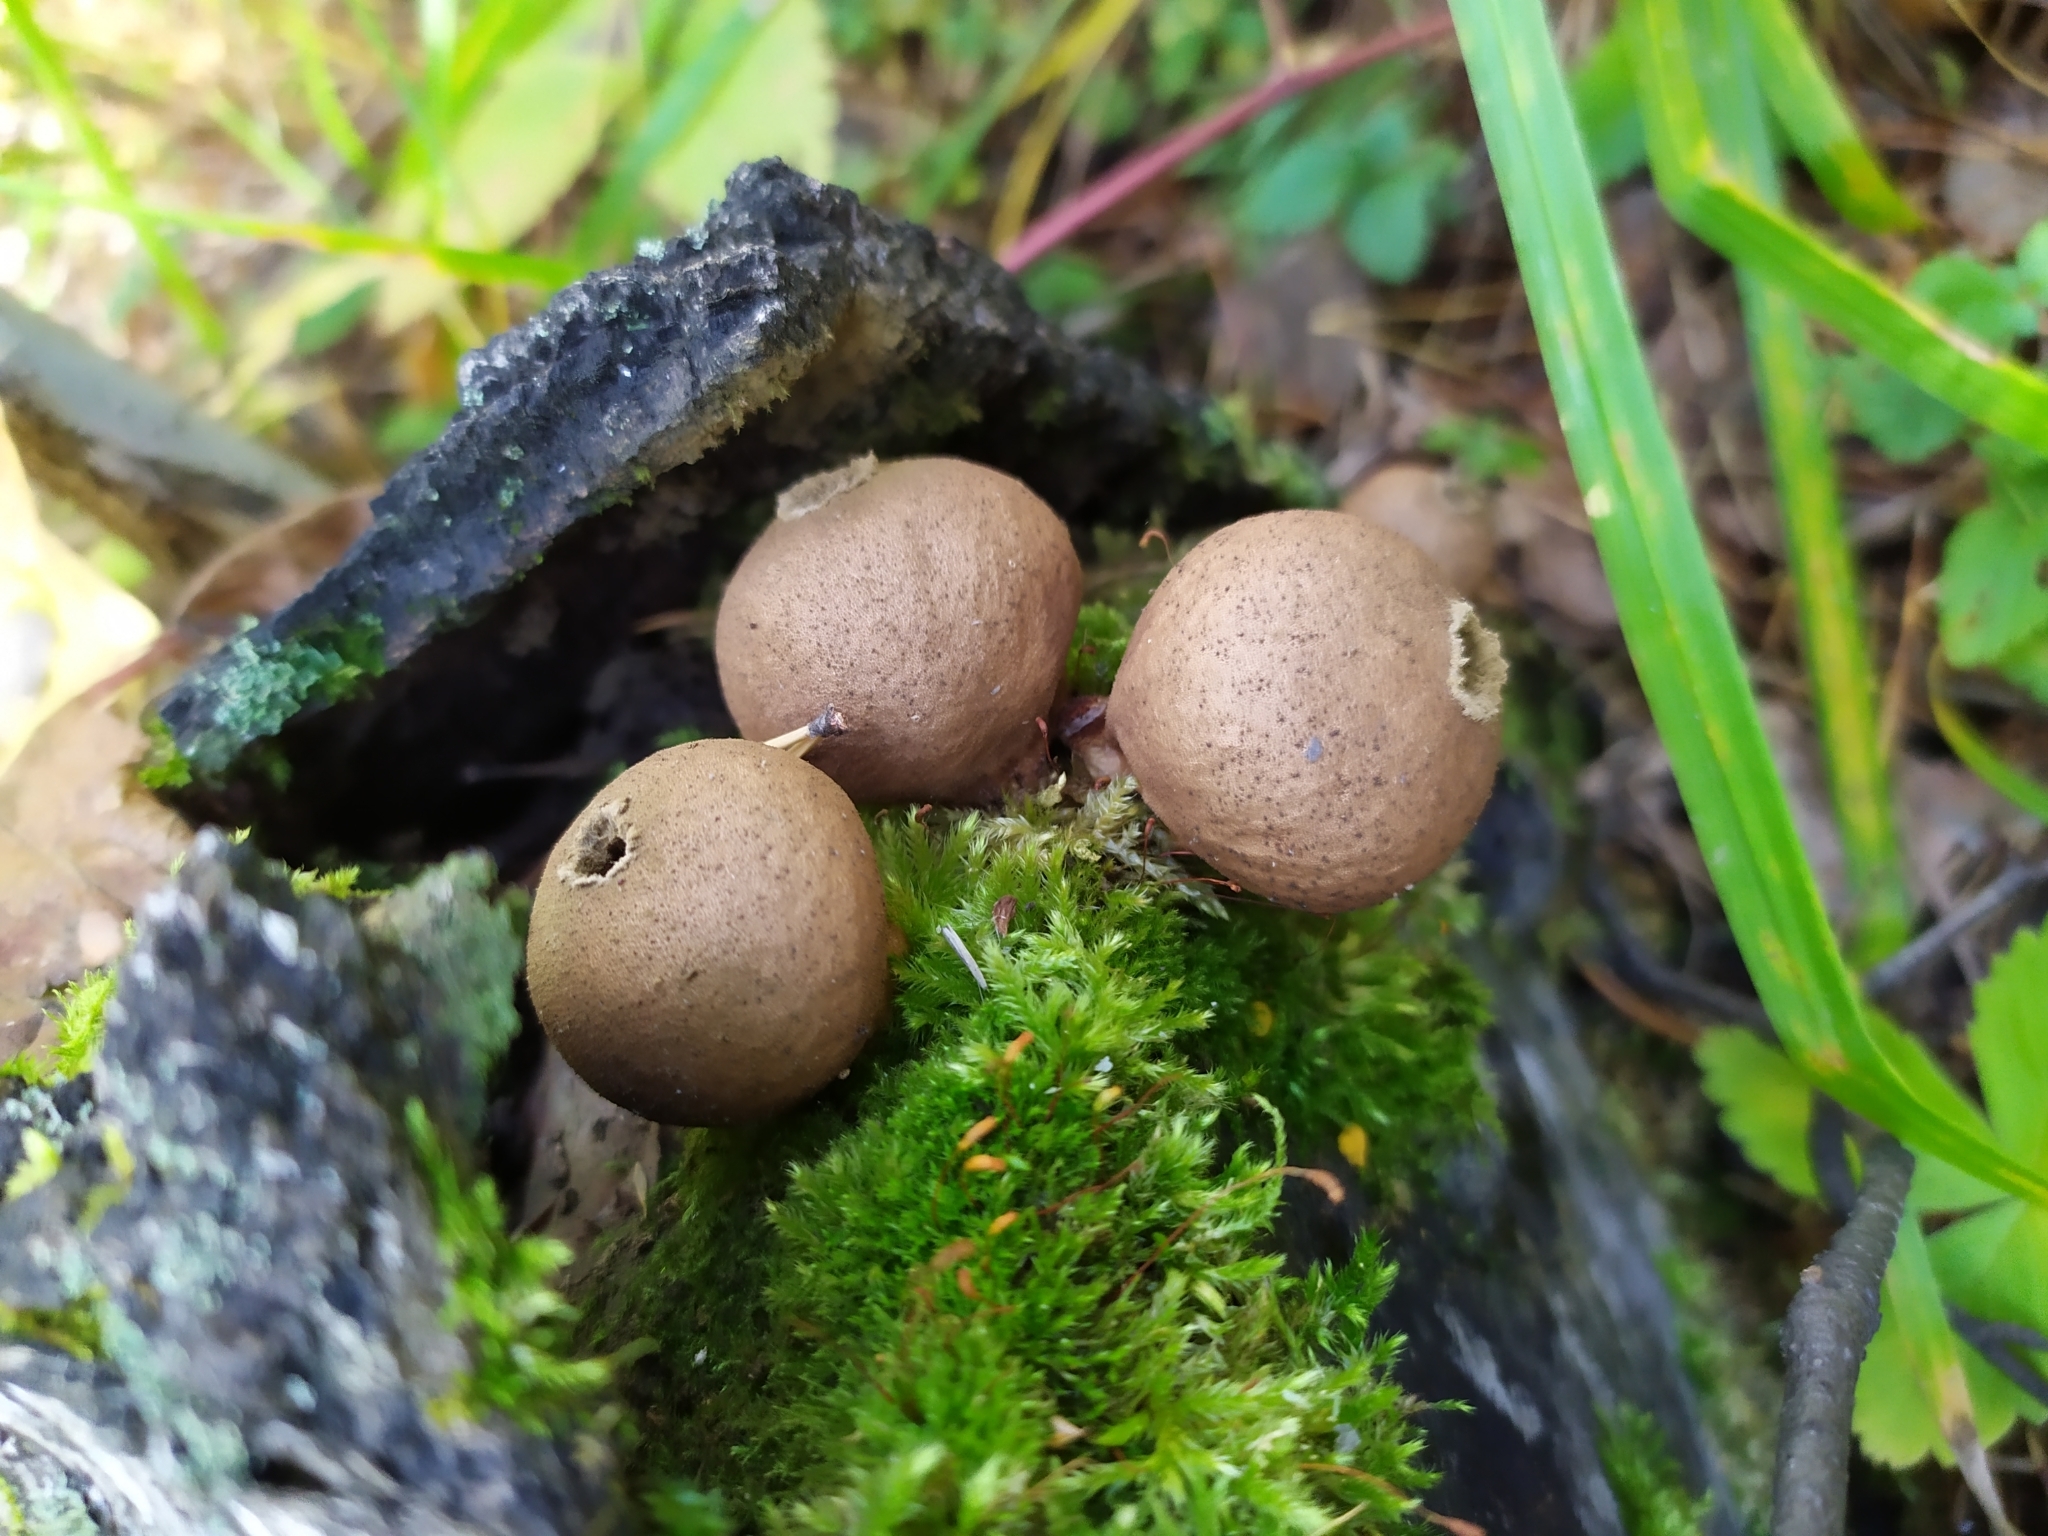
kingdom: Fungi
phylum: Basidiomycota
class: Agaricomycetes
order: Agaricales
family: Lycoperdaceae
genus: Apioperdon
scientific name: Apioperdon pyriforme
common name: Pear-shaped puffball
